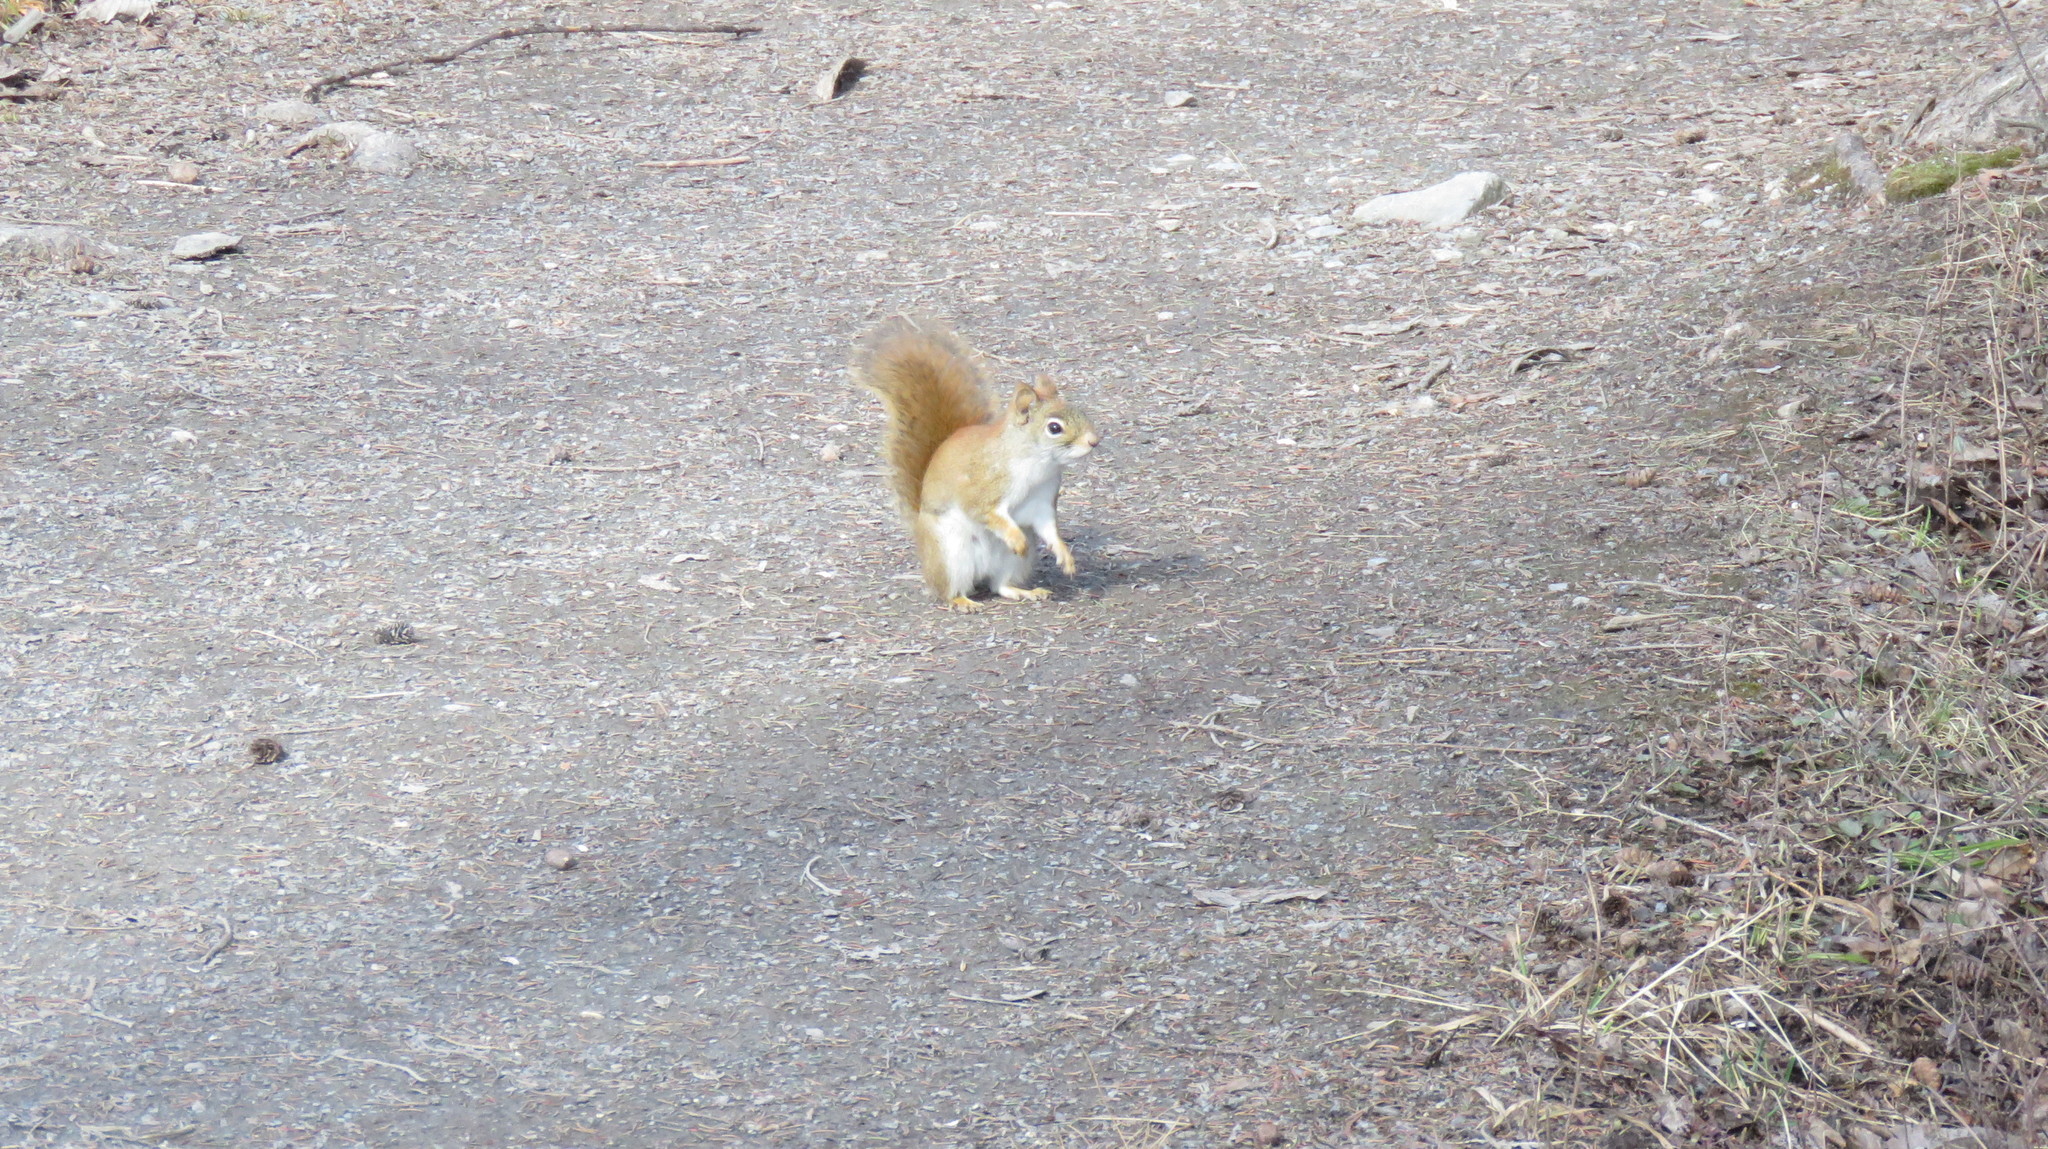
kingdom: Animalia
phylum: Chordata
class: Mammalia
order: Rodentia
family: Sciuridae
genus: Tamiasciurus
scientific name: Tamiasciurus hudsonicus
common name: Red squirrel
